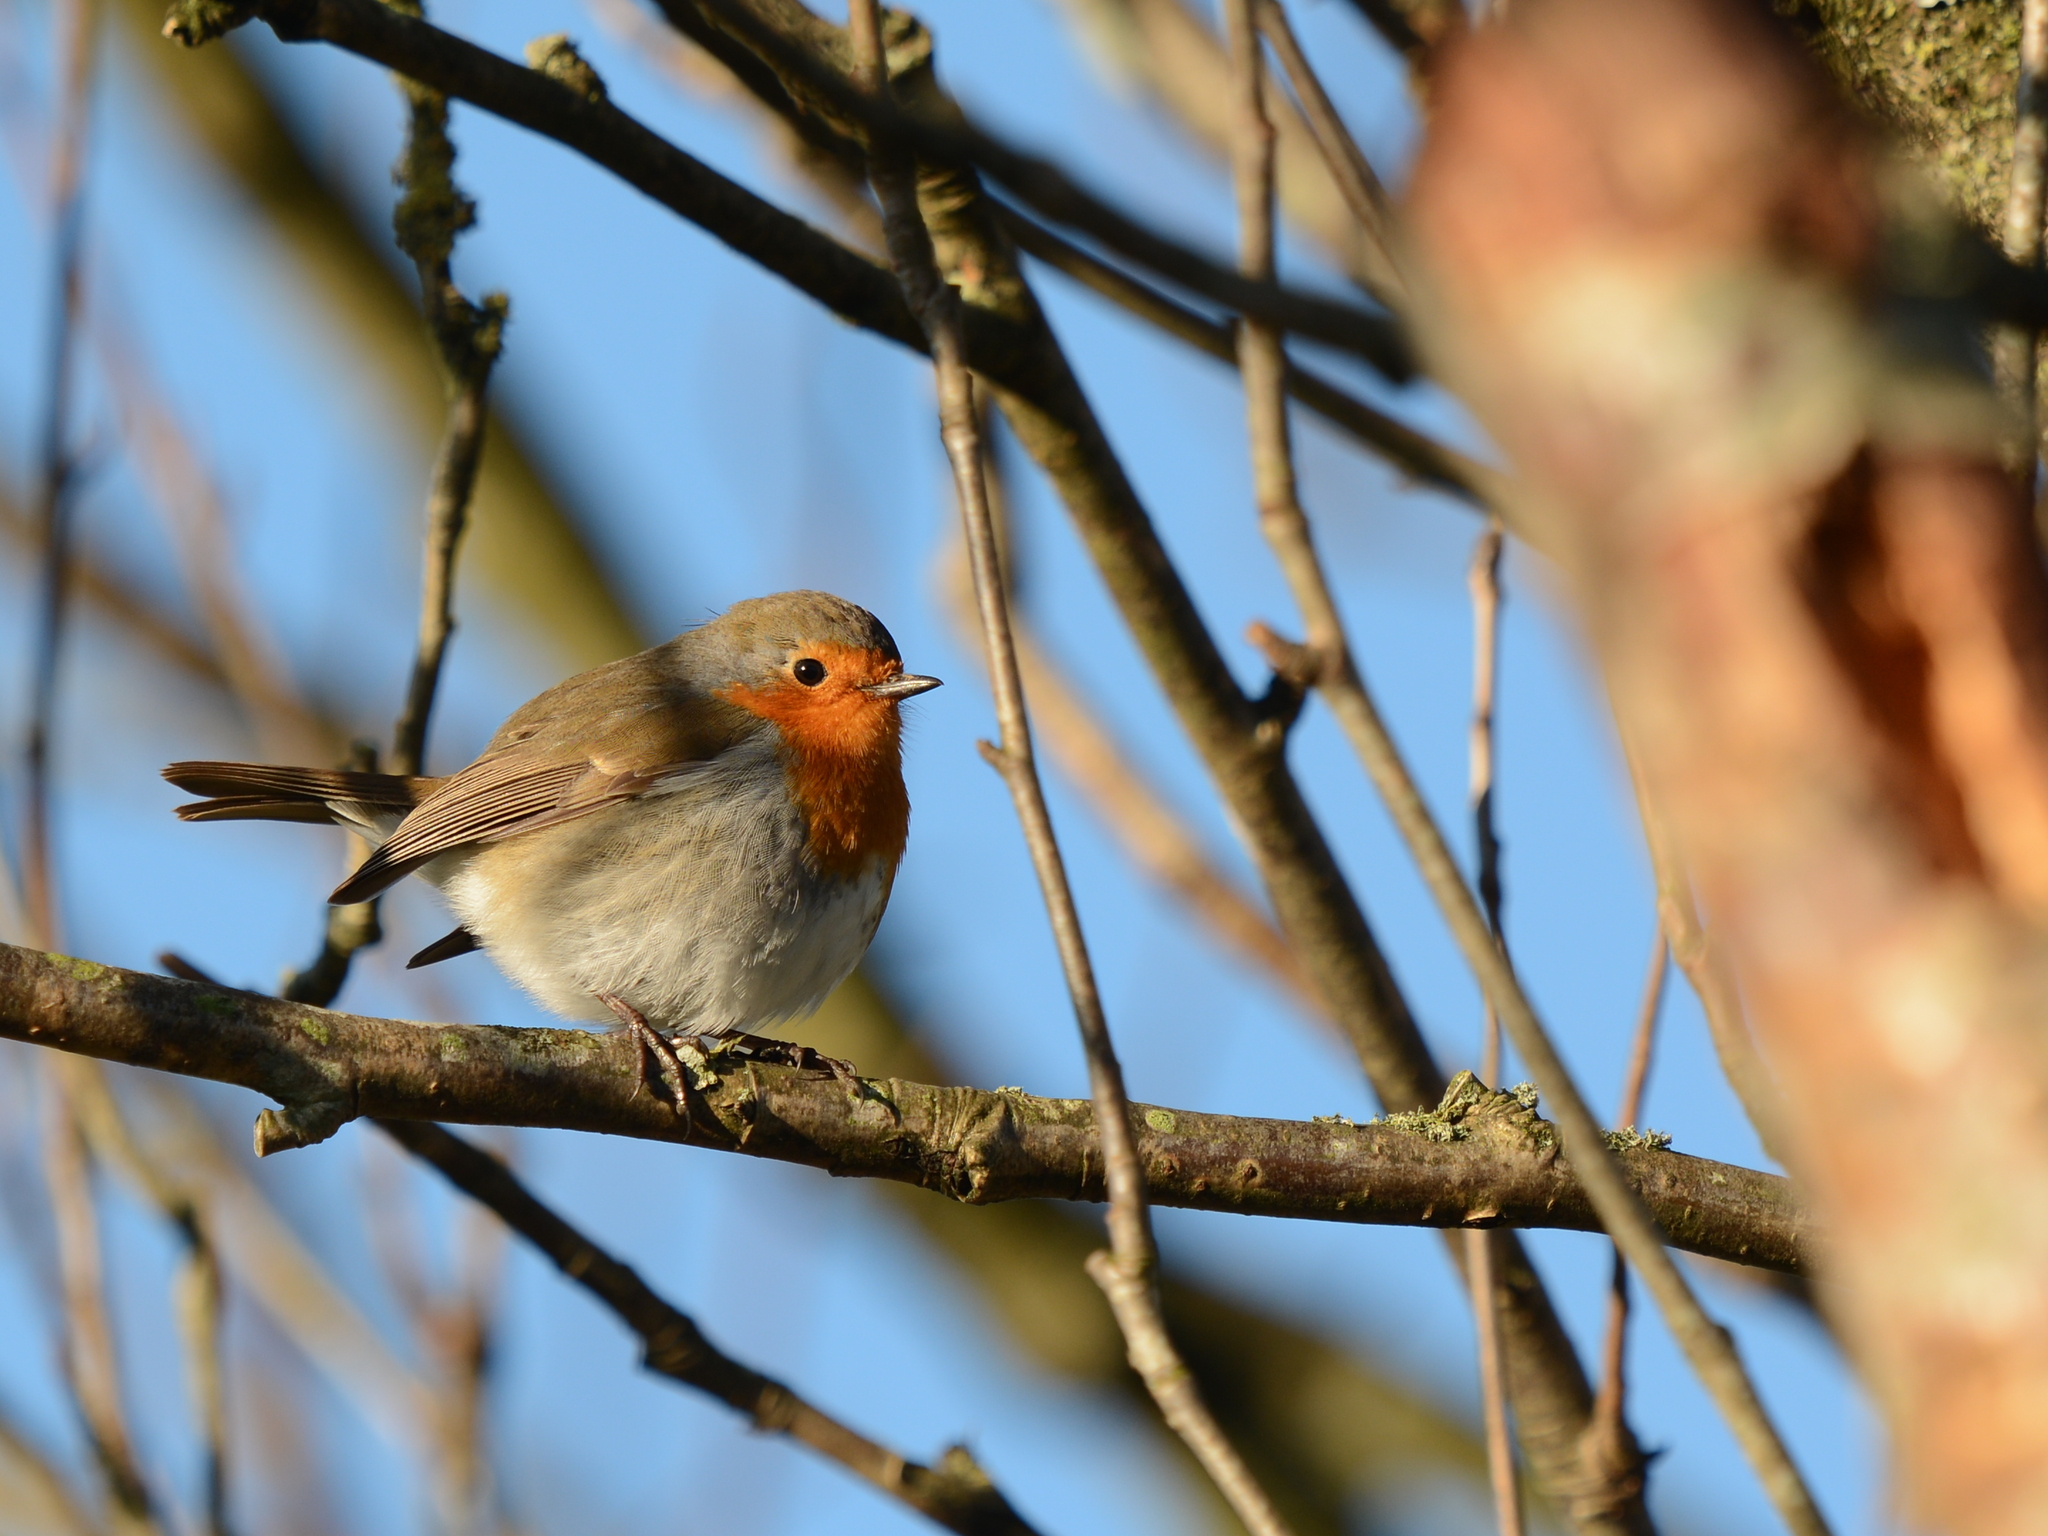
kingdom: Animalia
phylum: Chordata
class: Aves
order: Passeriformes
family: Muscicapidae
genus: Erithacus
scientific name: Erithacus rubecula
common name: European robin
